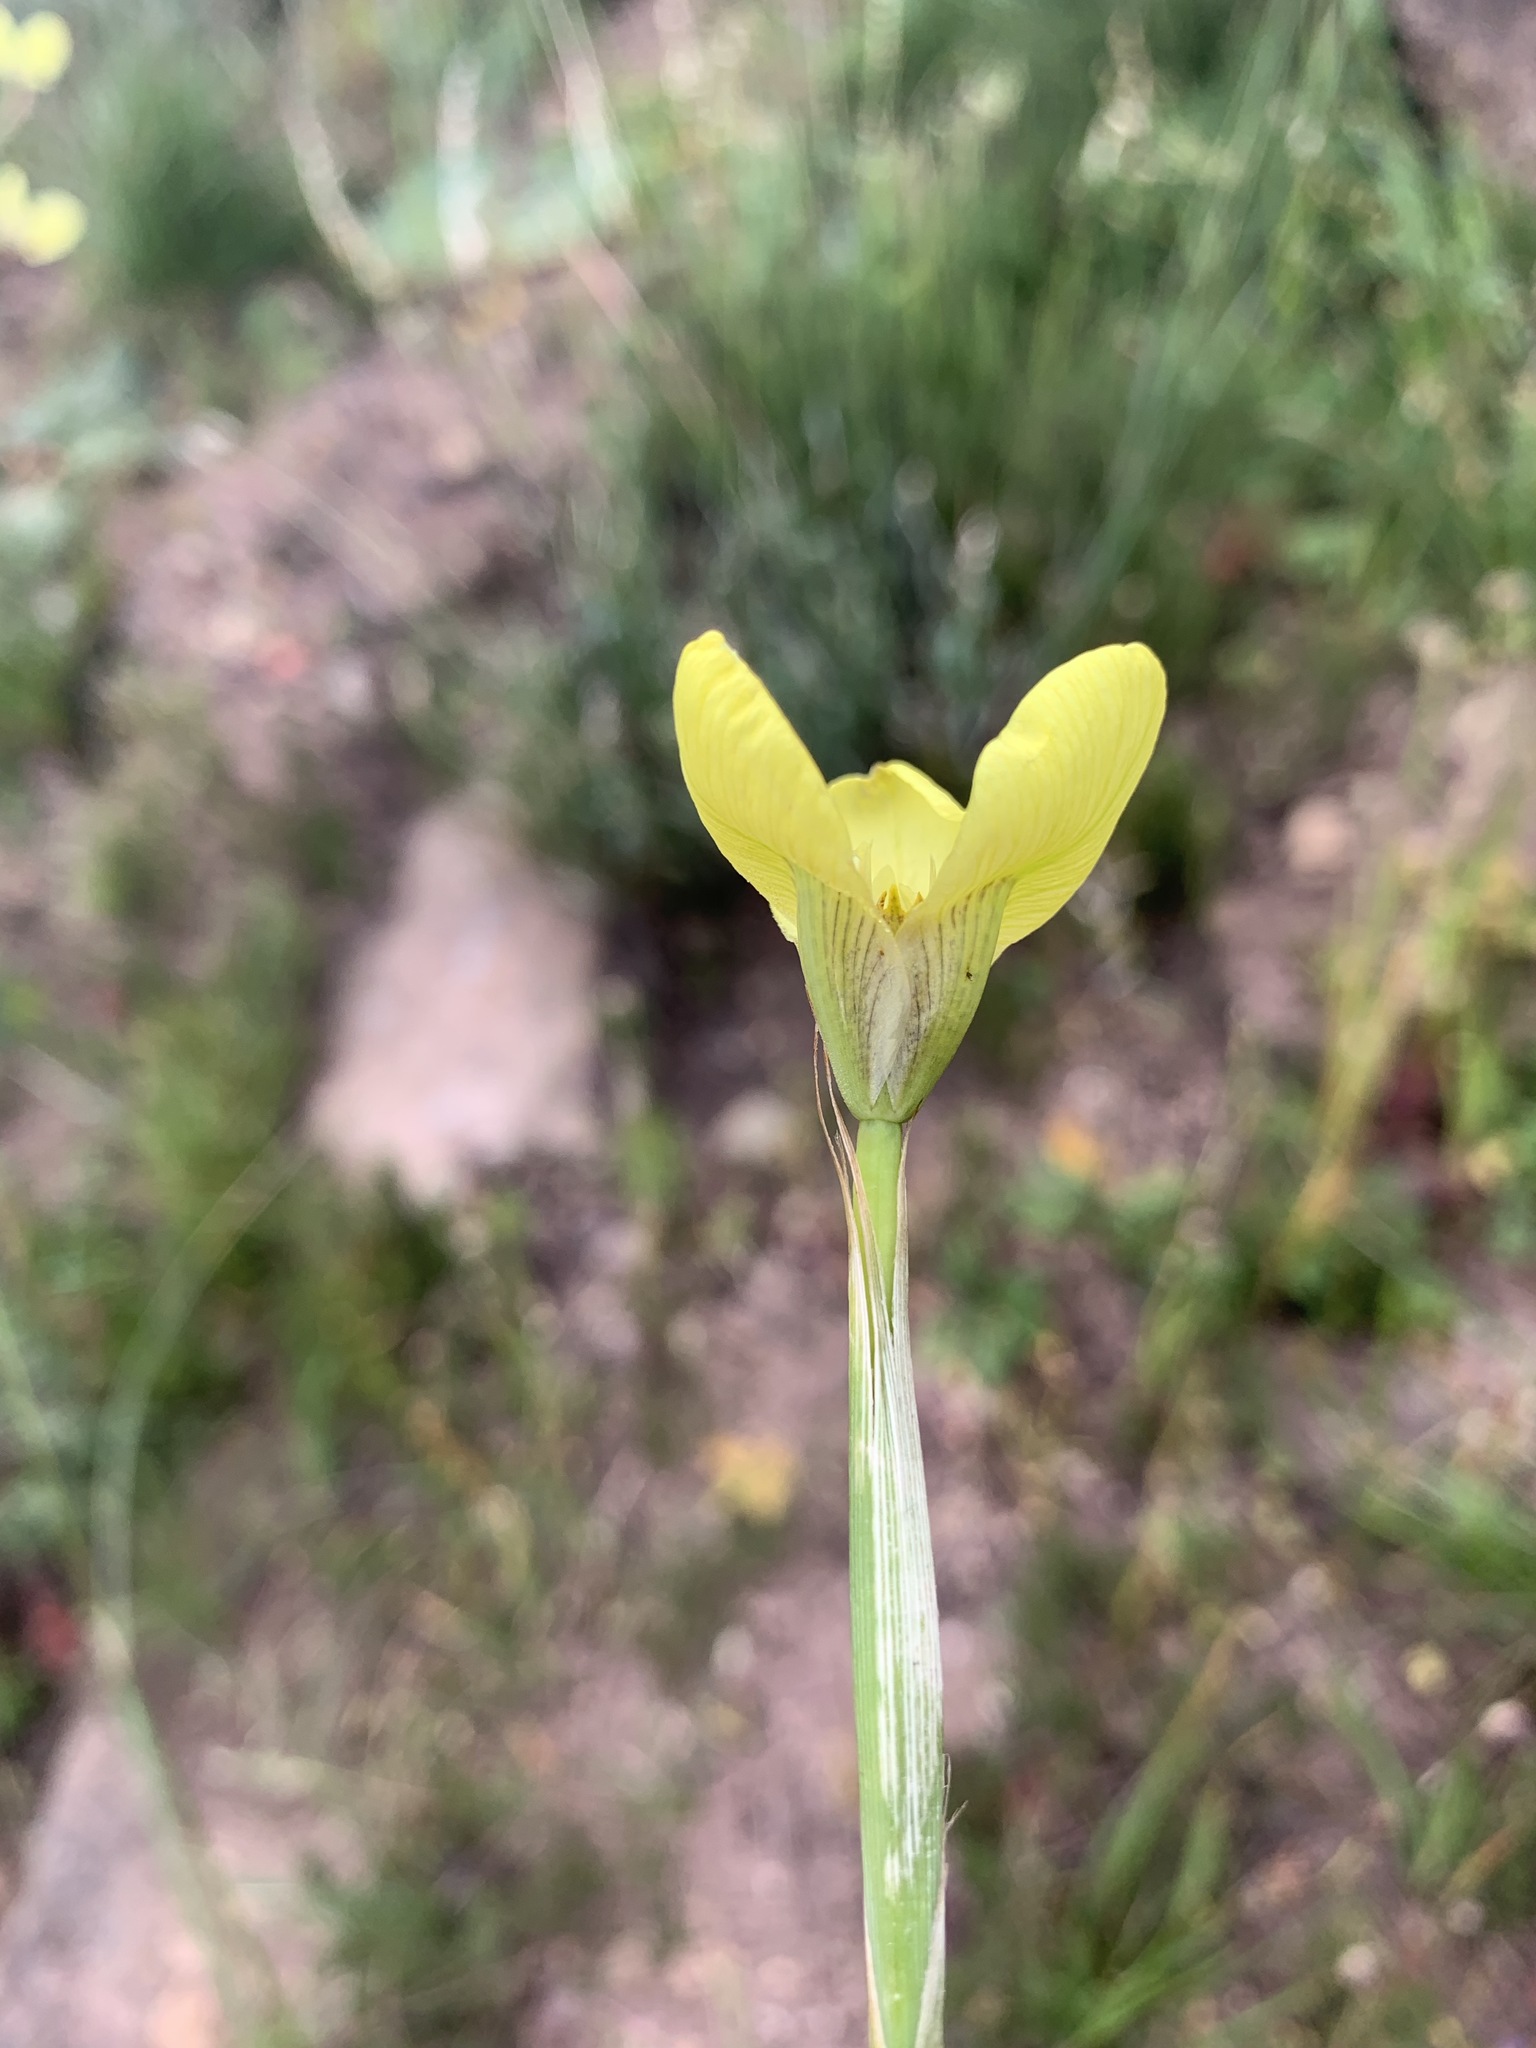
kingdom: Plantae
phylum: Tracheophyta
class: Liliopsida
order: Asparagales
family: Iridaceae
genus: Moraea
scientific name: Moraea bellendenii
